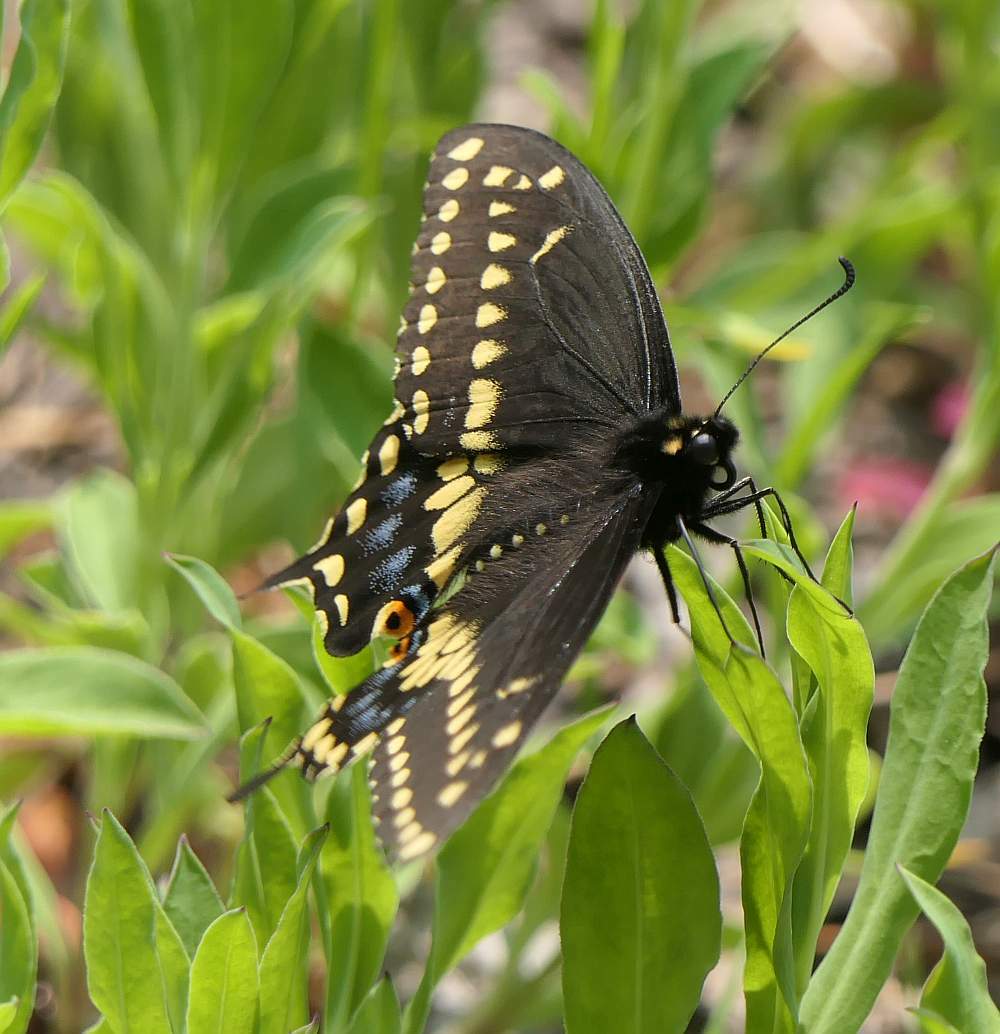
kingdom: Animalia
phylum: Arthropoda
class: Insecta
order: Lepidoptera
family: Papilionidae
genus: Papilio
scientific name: Papilio polyxenes
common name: Black swallowtail
